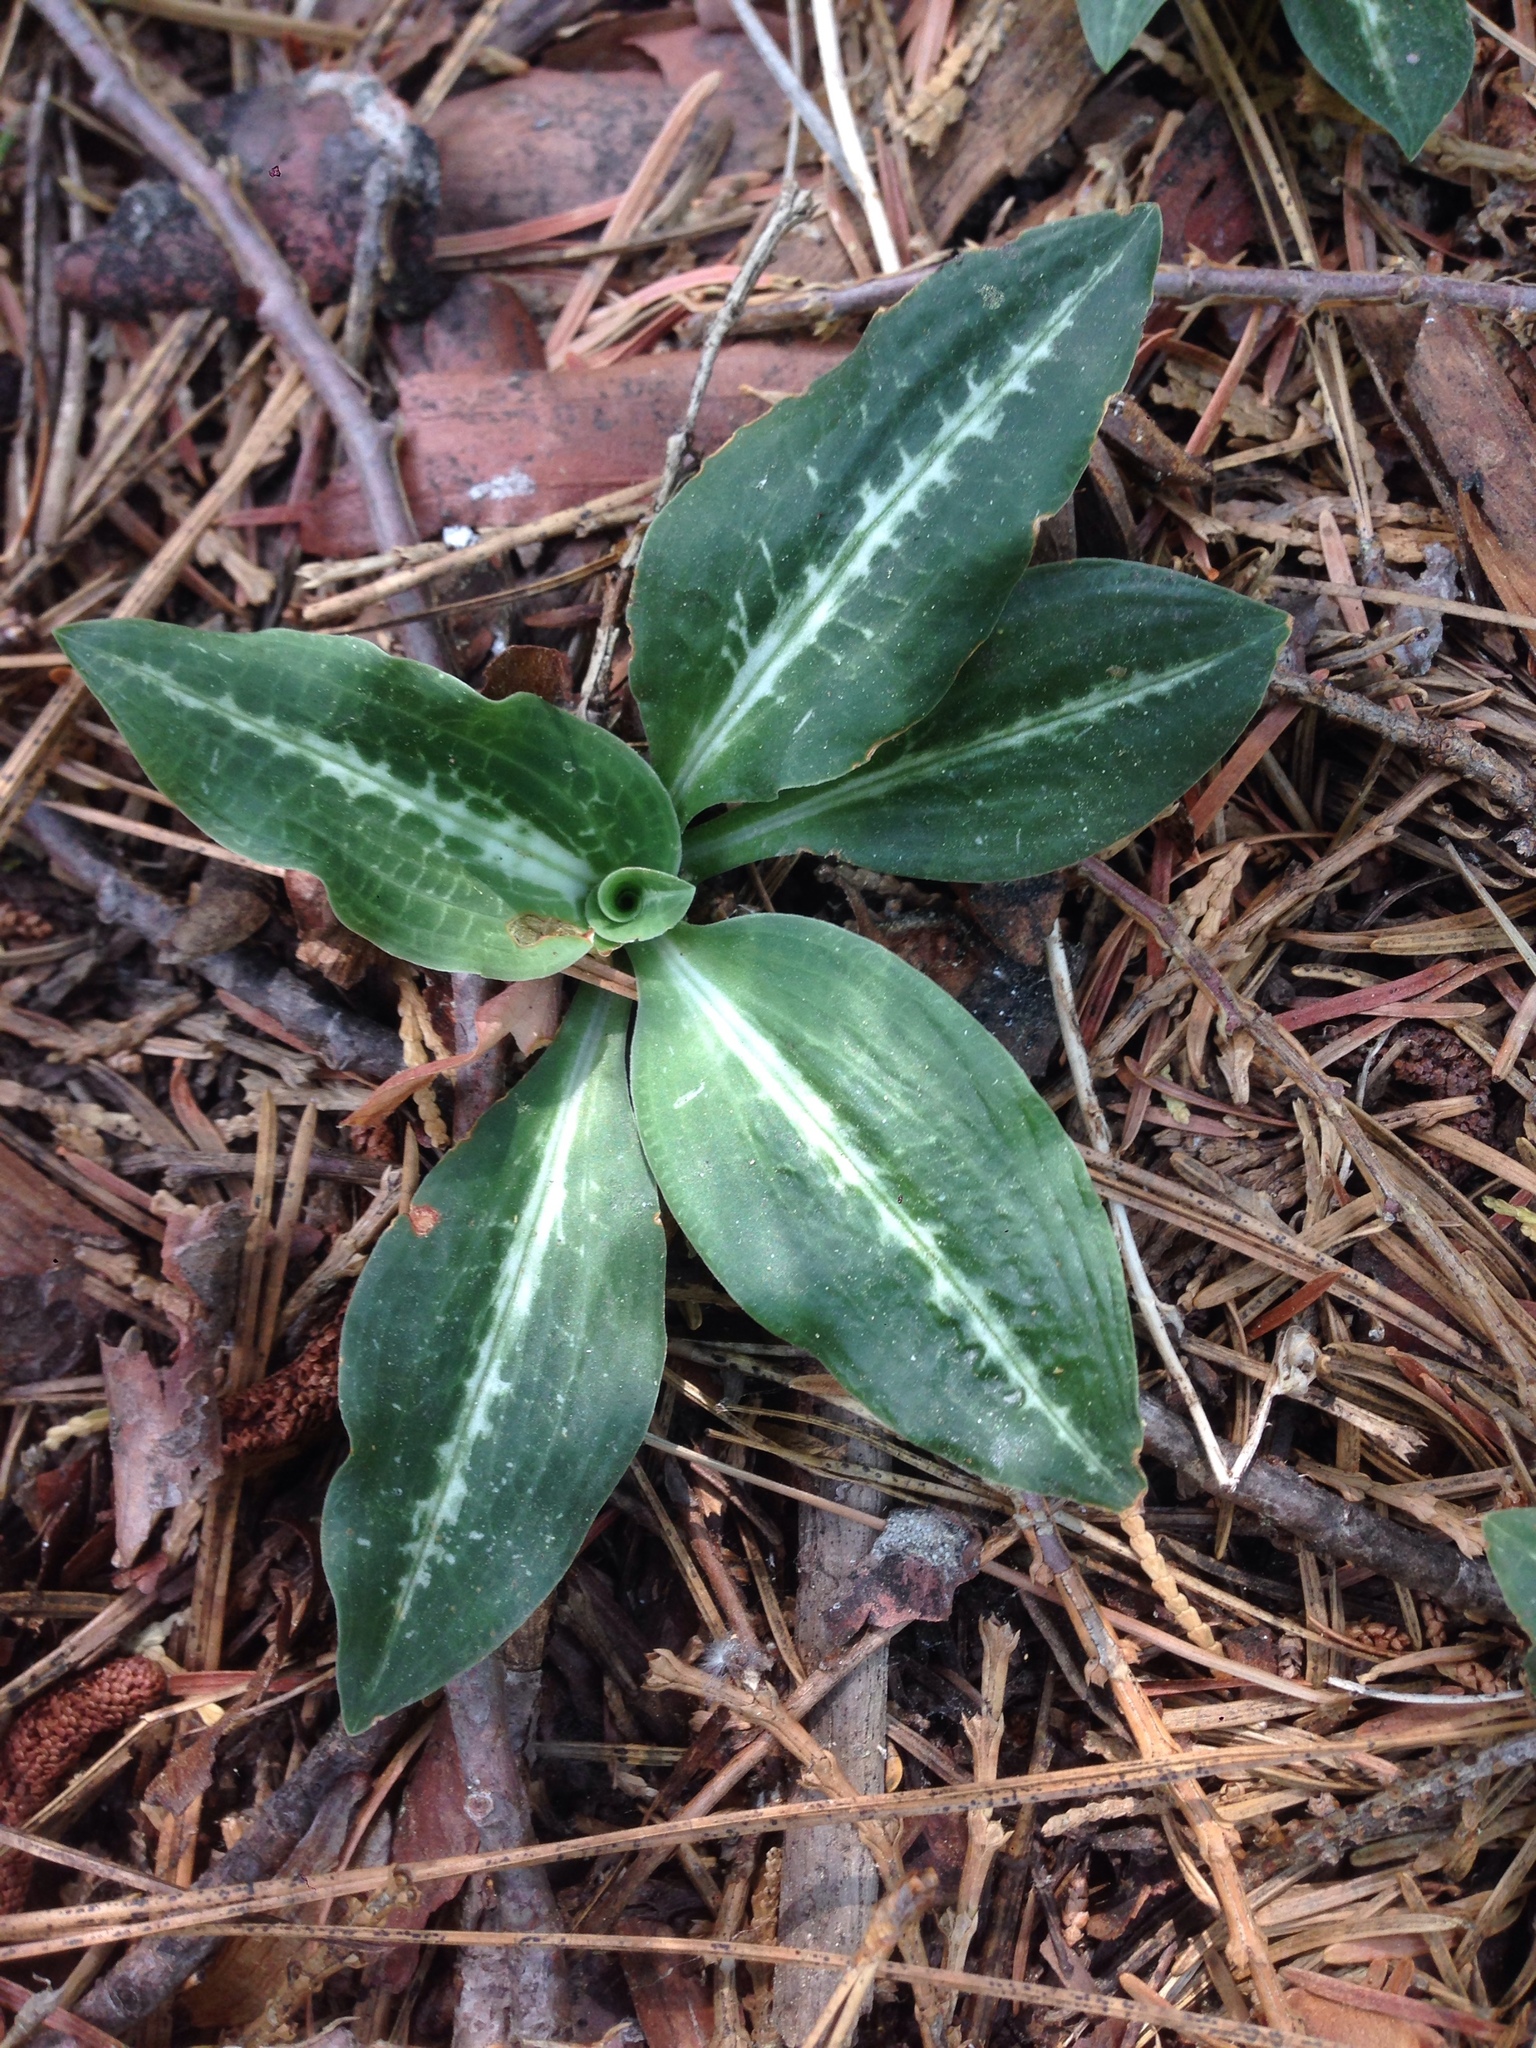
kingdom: Plantae
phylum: Tracheophyta
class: Liliopsida
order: Asparagales
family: Orchidaceae
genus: Goodyera
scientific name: Goodyera oblongifolia
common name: Giant rattlesnake-plantain
